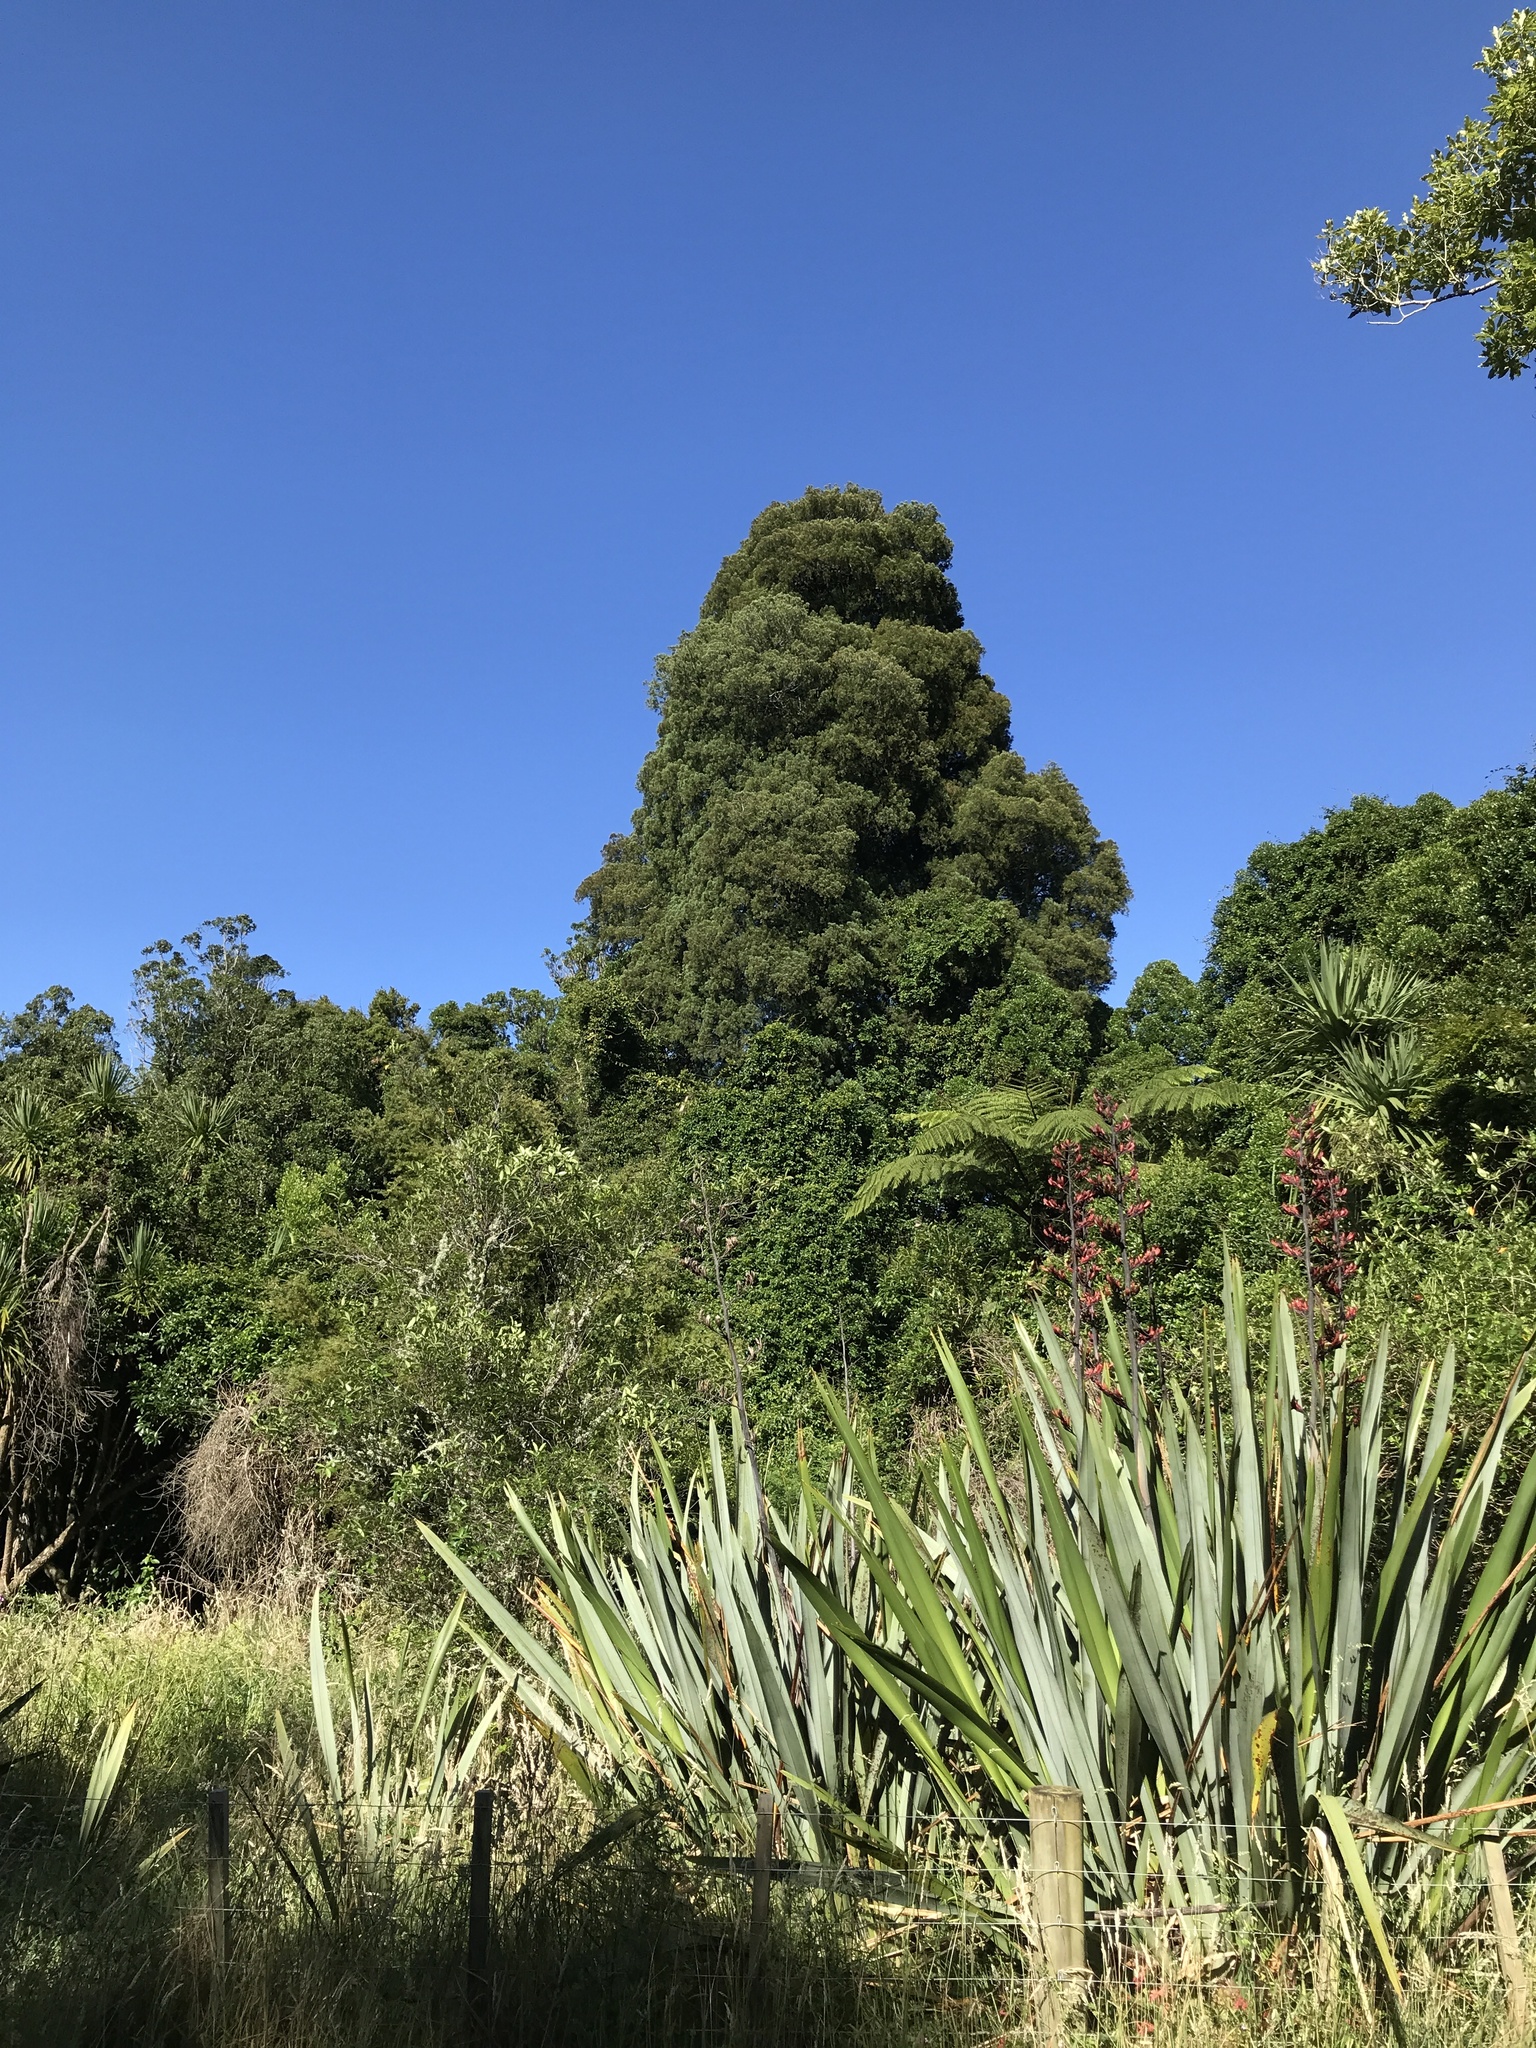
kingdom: Plantae
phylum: Tracheophyta
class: Pinopsida
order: Pinales
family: Podocarpaceae
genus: Dacrycarpus
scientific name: Dacrycarpus dacrydioides
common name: White pine
